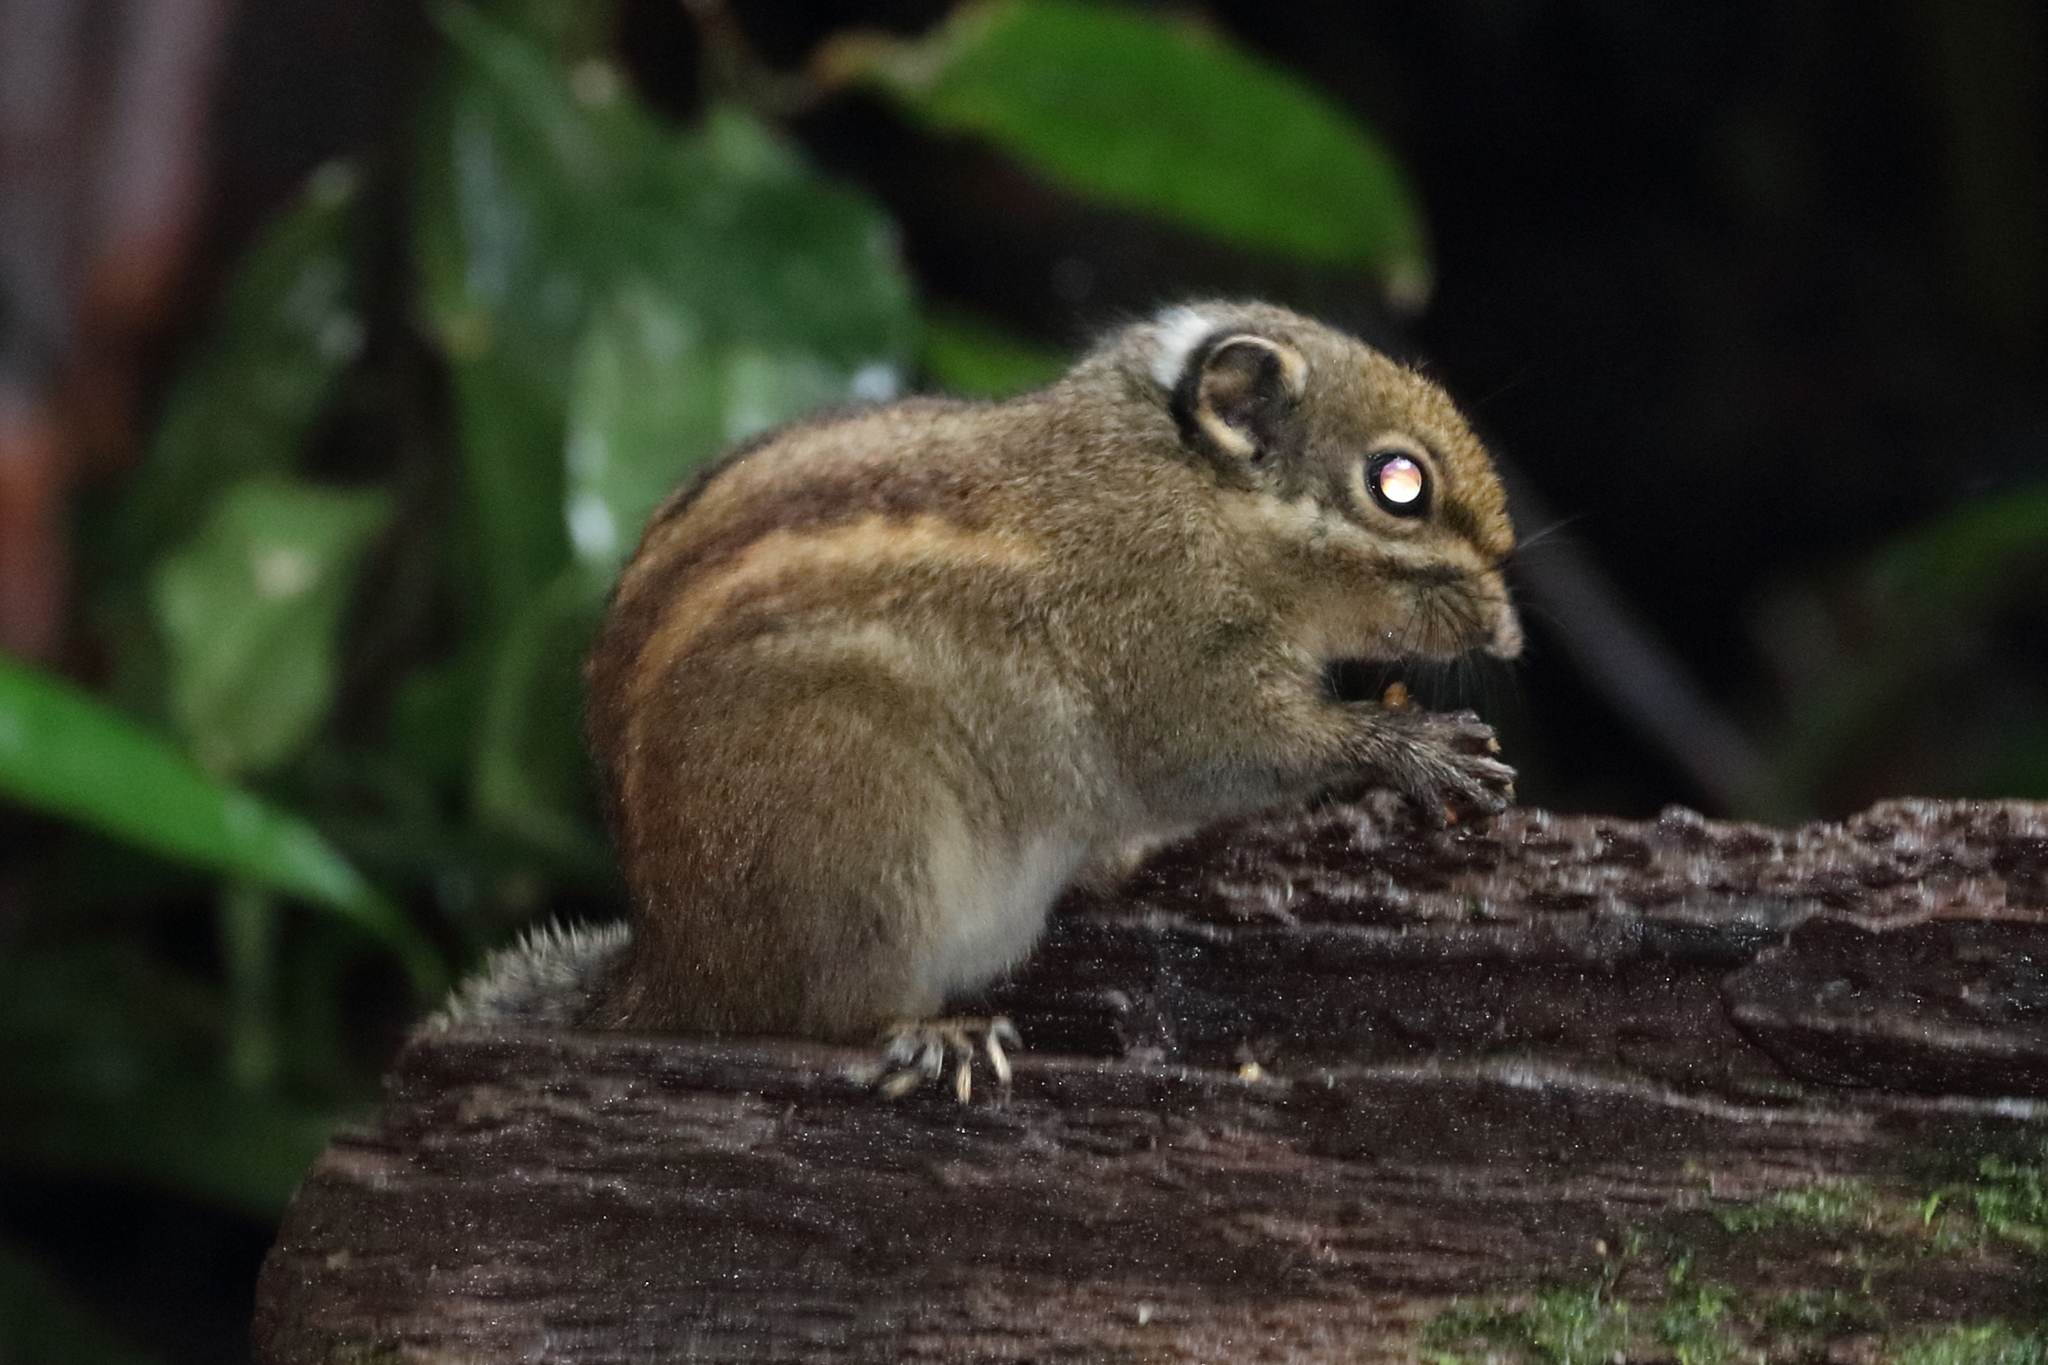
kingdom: Animalia
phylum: Chordata
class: Mammalia
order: Rodentia
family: Sciuridae
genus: Tamiops
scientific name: Tamiops maritimus
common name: Maritime striped squirrel
